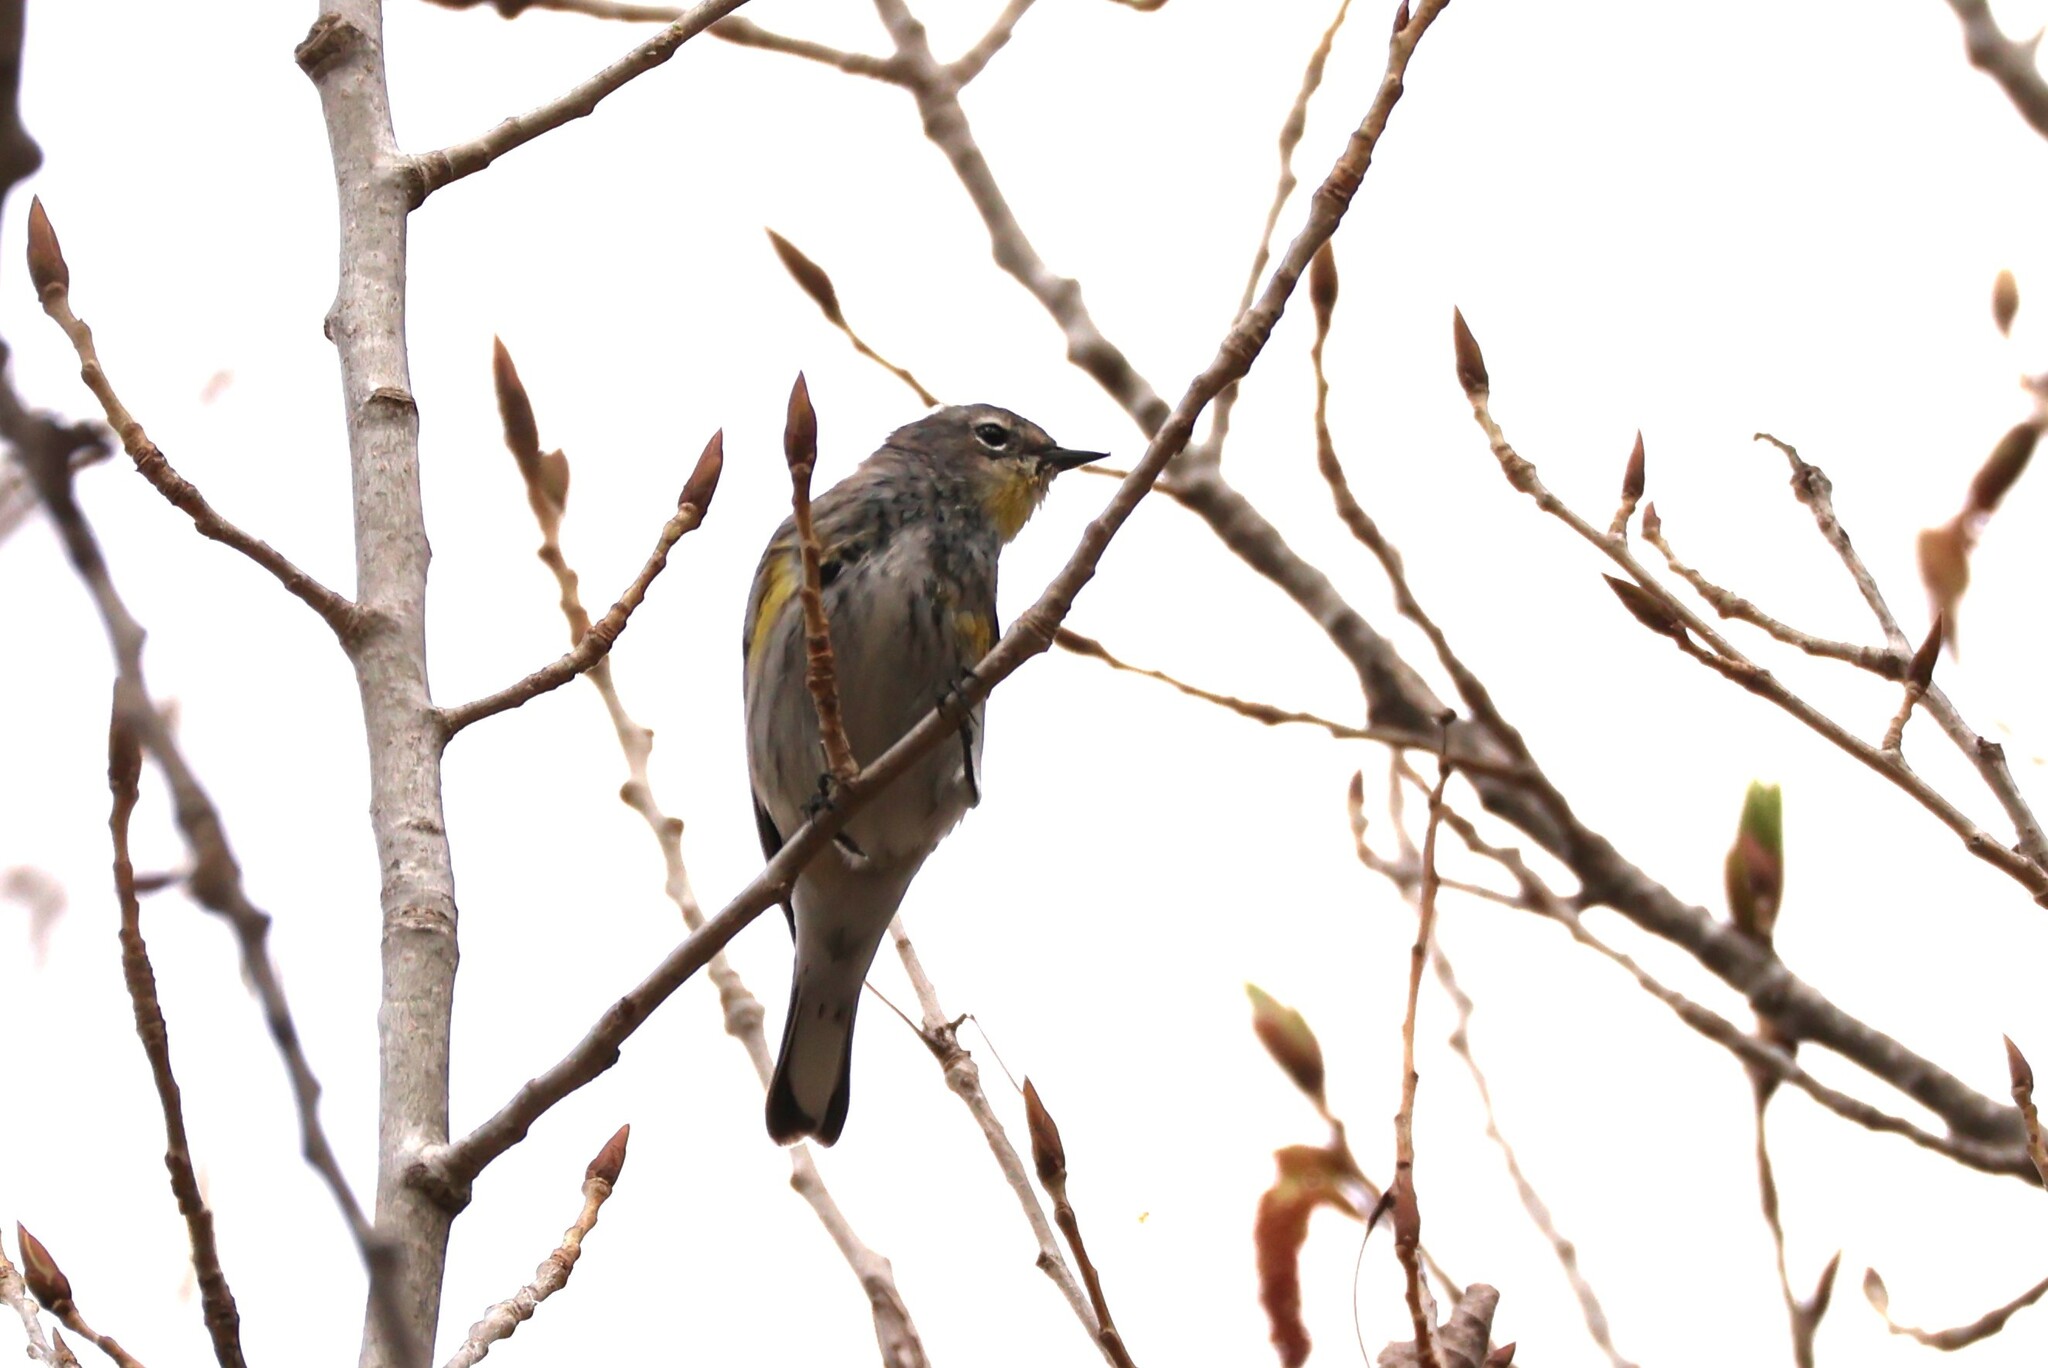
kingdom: Animalia
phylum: Chordata
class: Aves
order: Passeriformes
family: Parulidae
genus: Setophaga
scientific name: Setophaga auduboni
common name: Audubon's warbler
